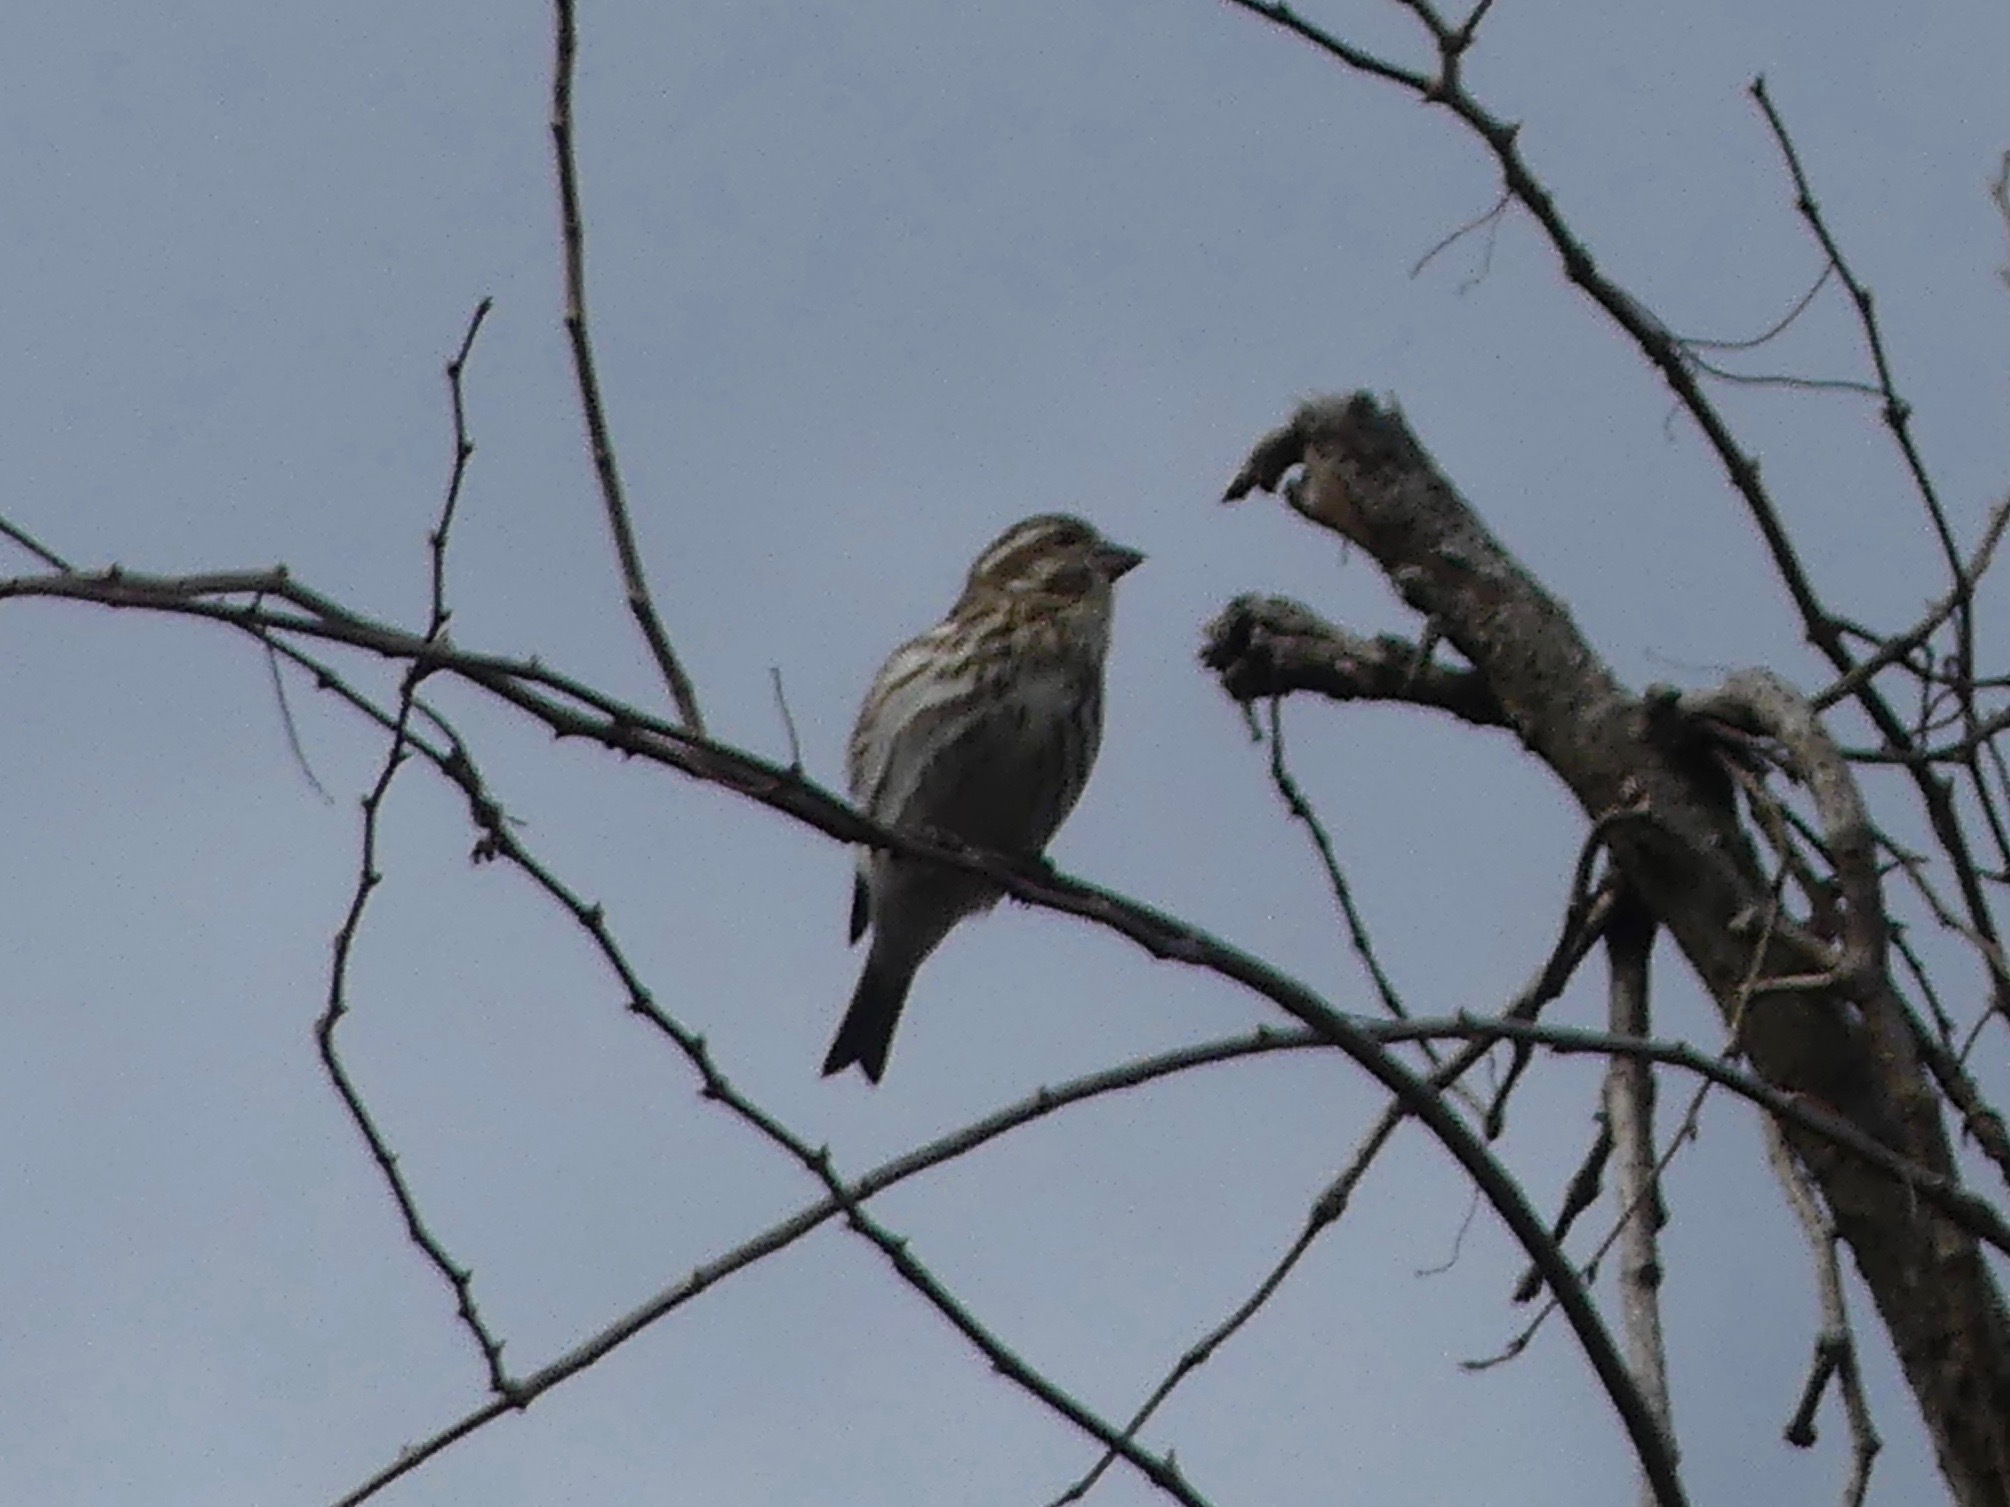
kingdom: Animalia
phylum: Chordata
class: Aves
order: Passeriformes
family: Fringillidae
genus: Haemorhous
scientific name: Haemorhous purpureus
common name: Purple finch
